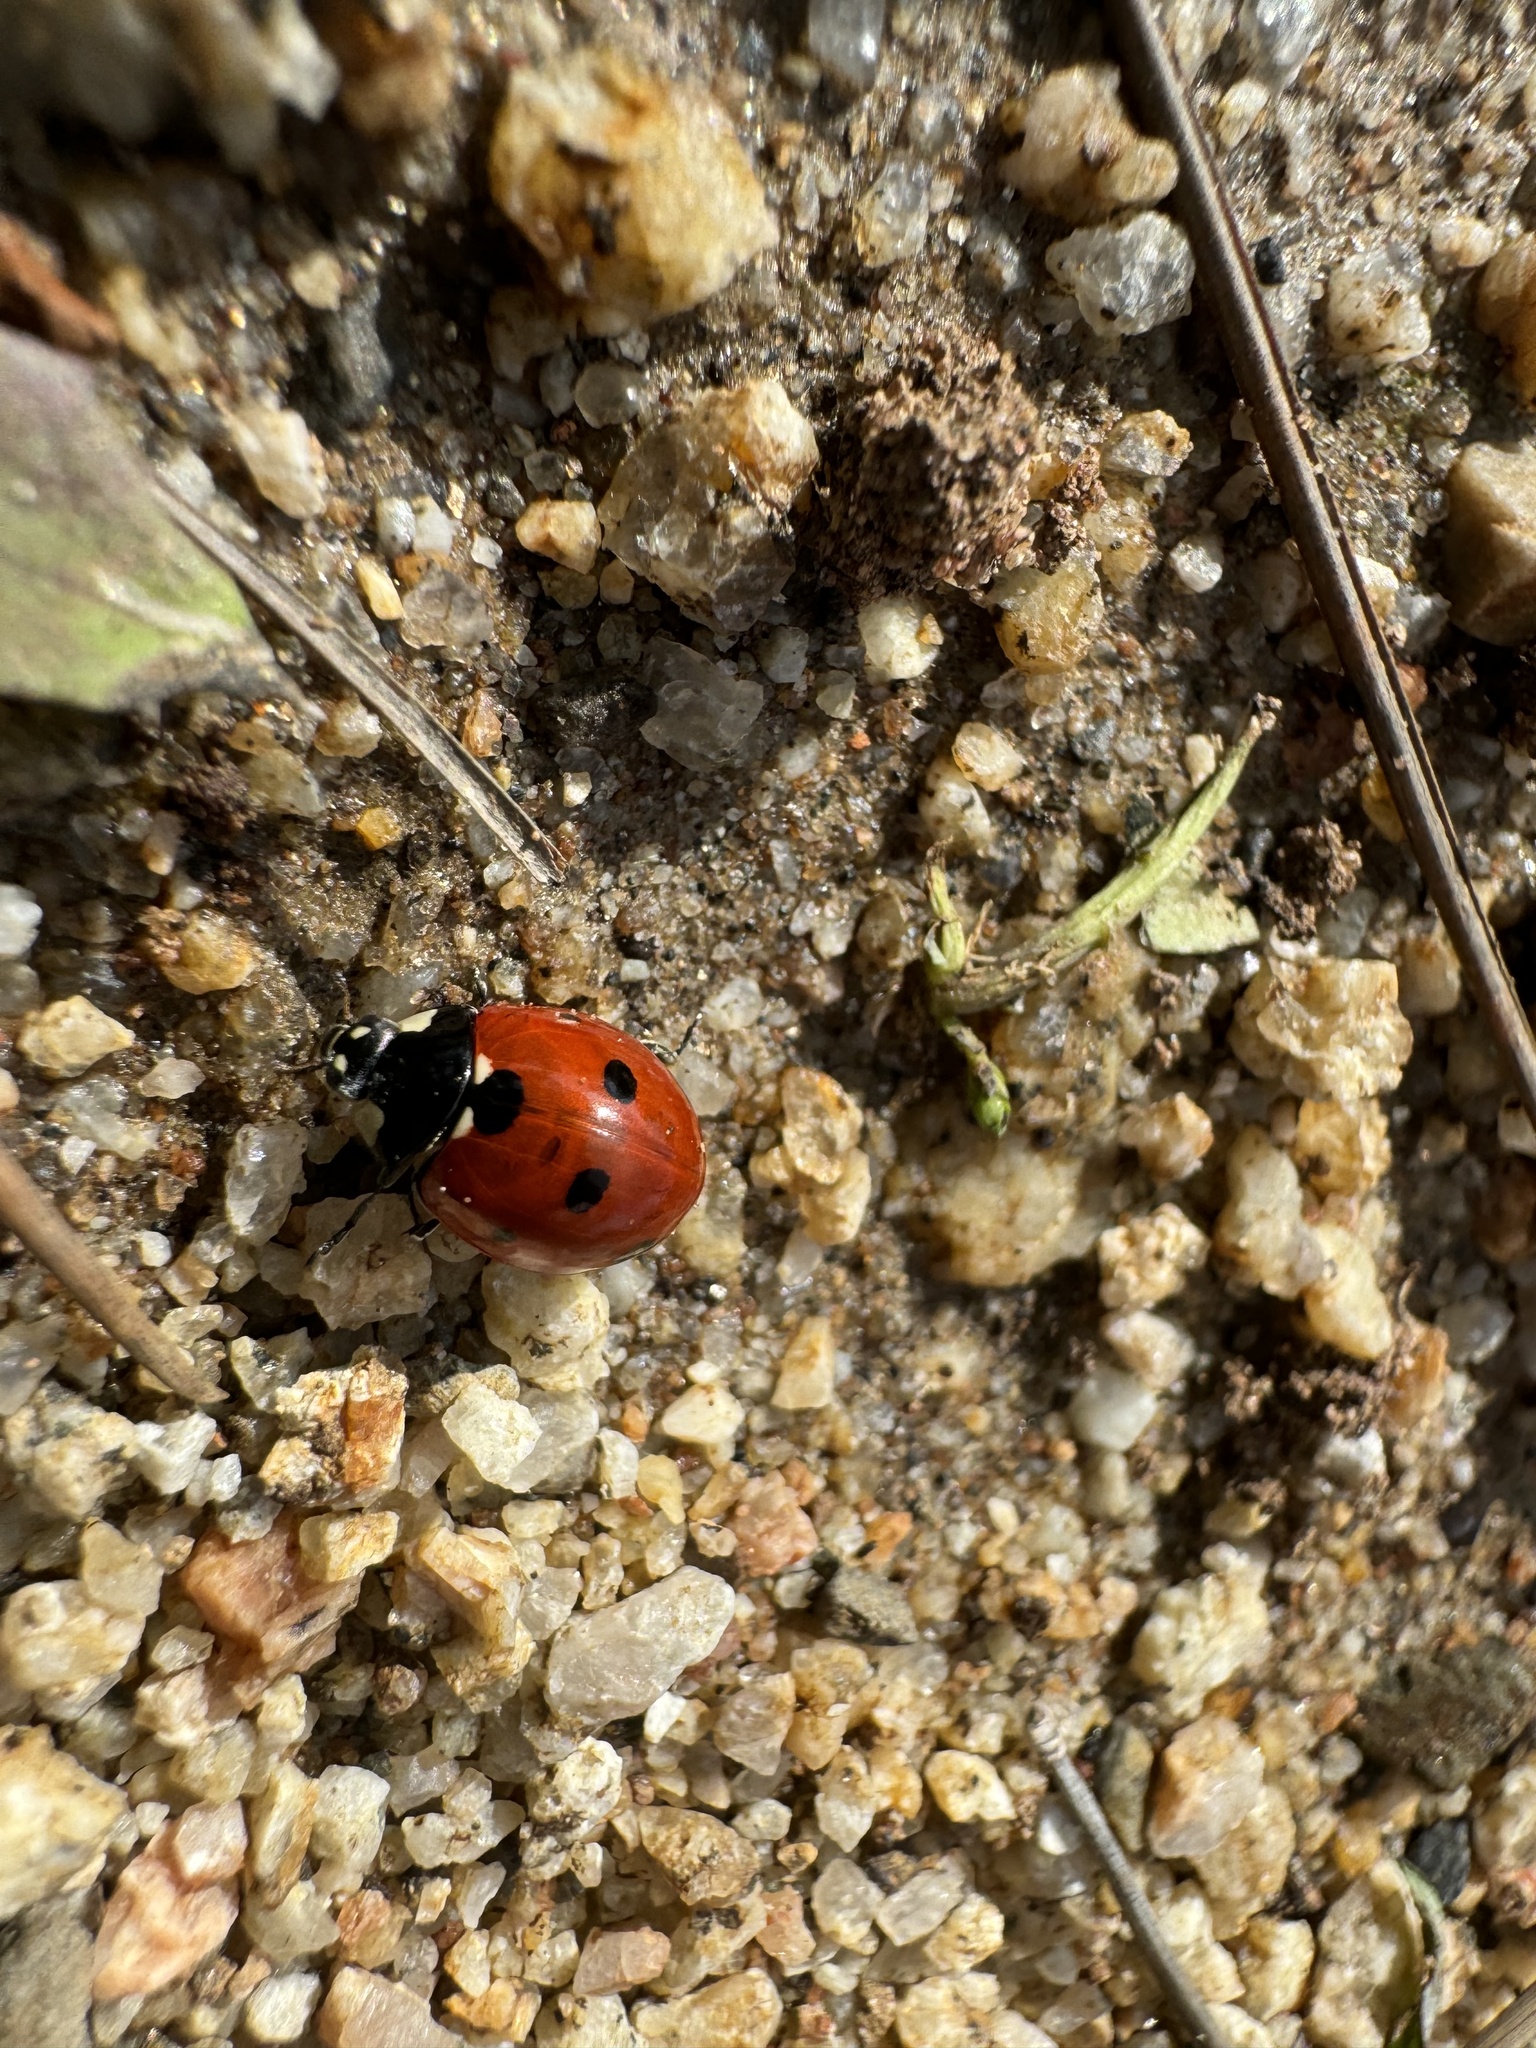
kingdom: Animalia
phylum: Arthropoda
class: Insecta
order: Coleoptera
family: Coccinellidae
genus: Coccinella
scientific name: Coccinella septempunctata
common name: Sevenspotted lady beetle
